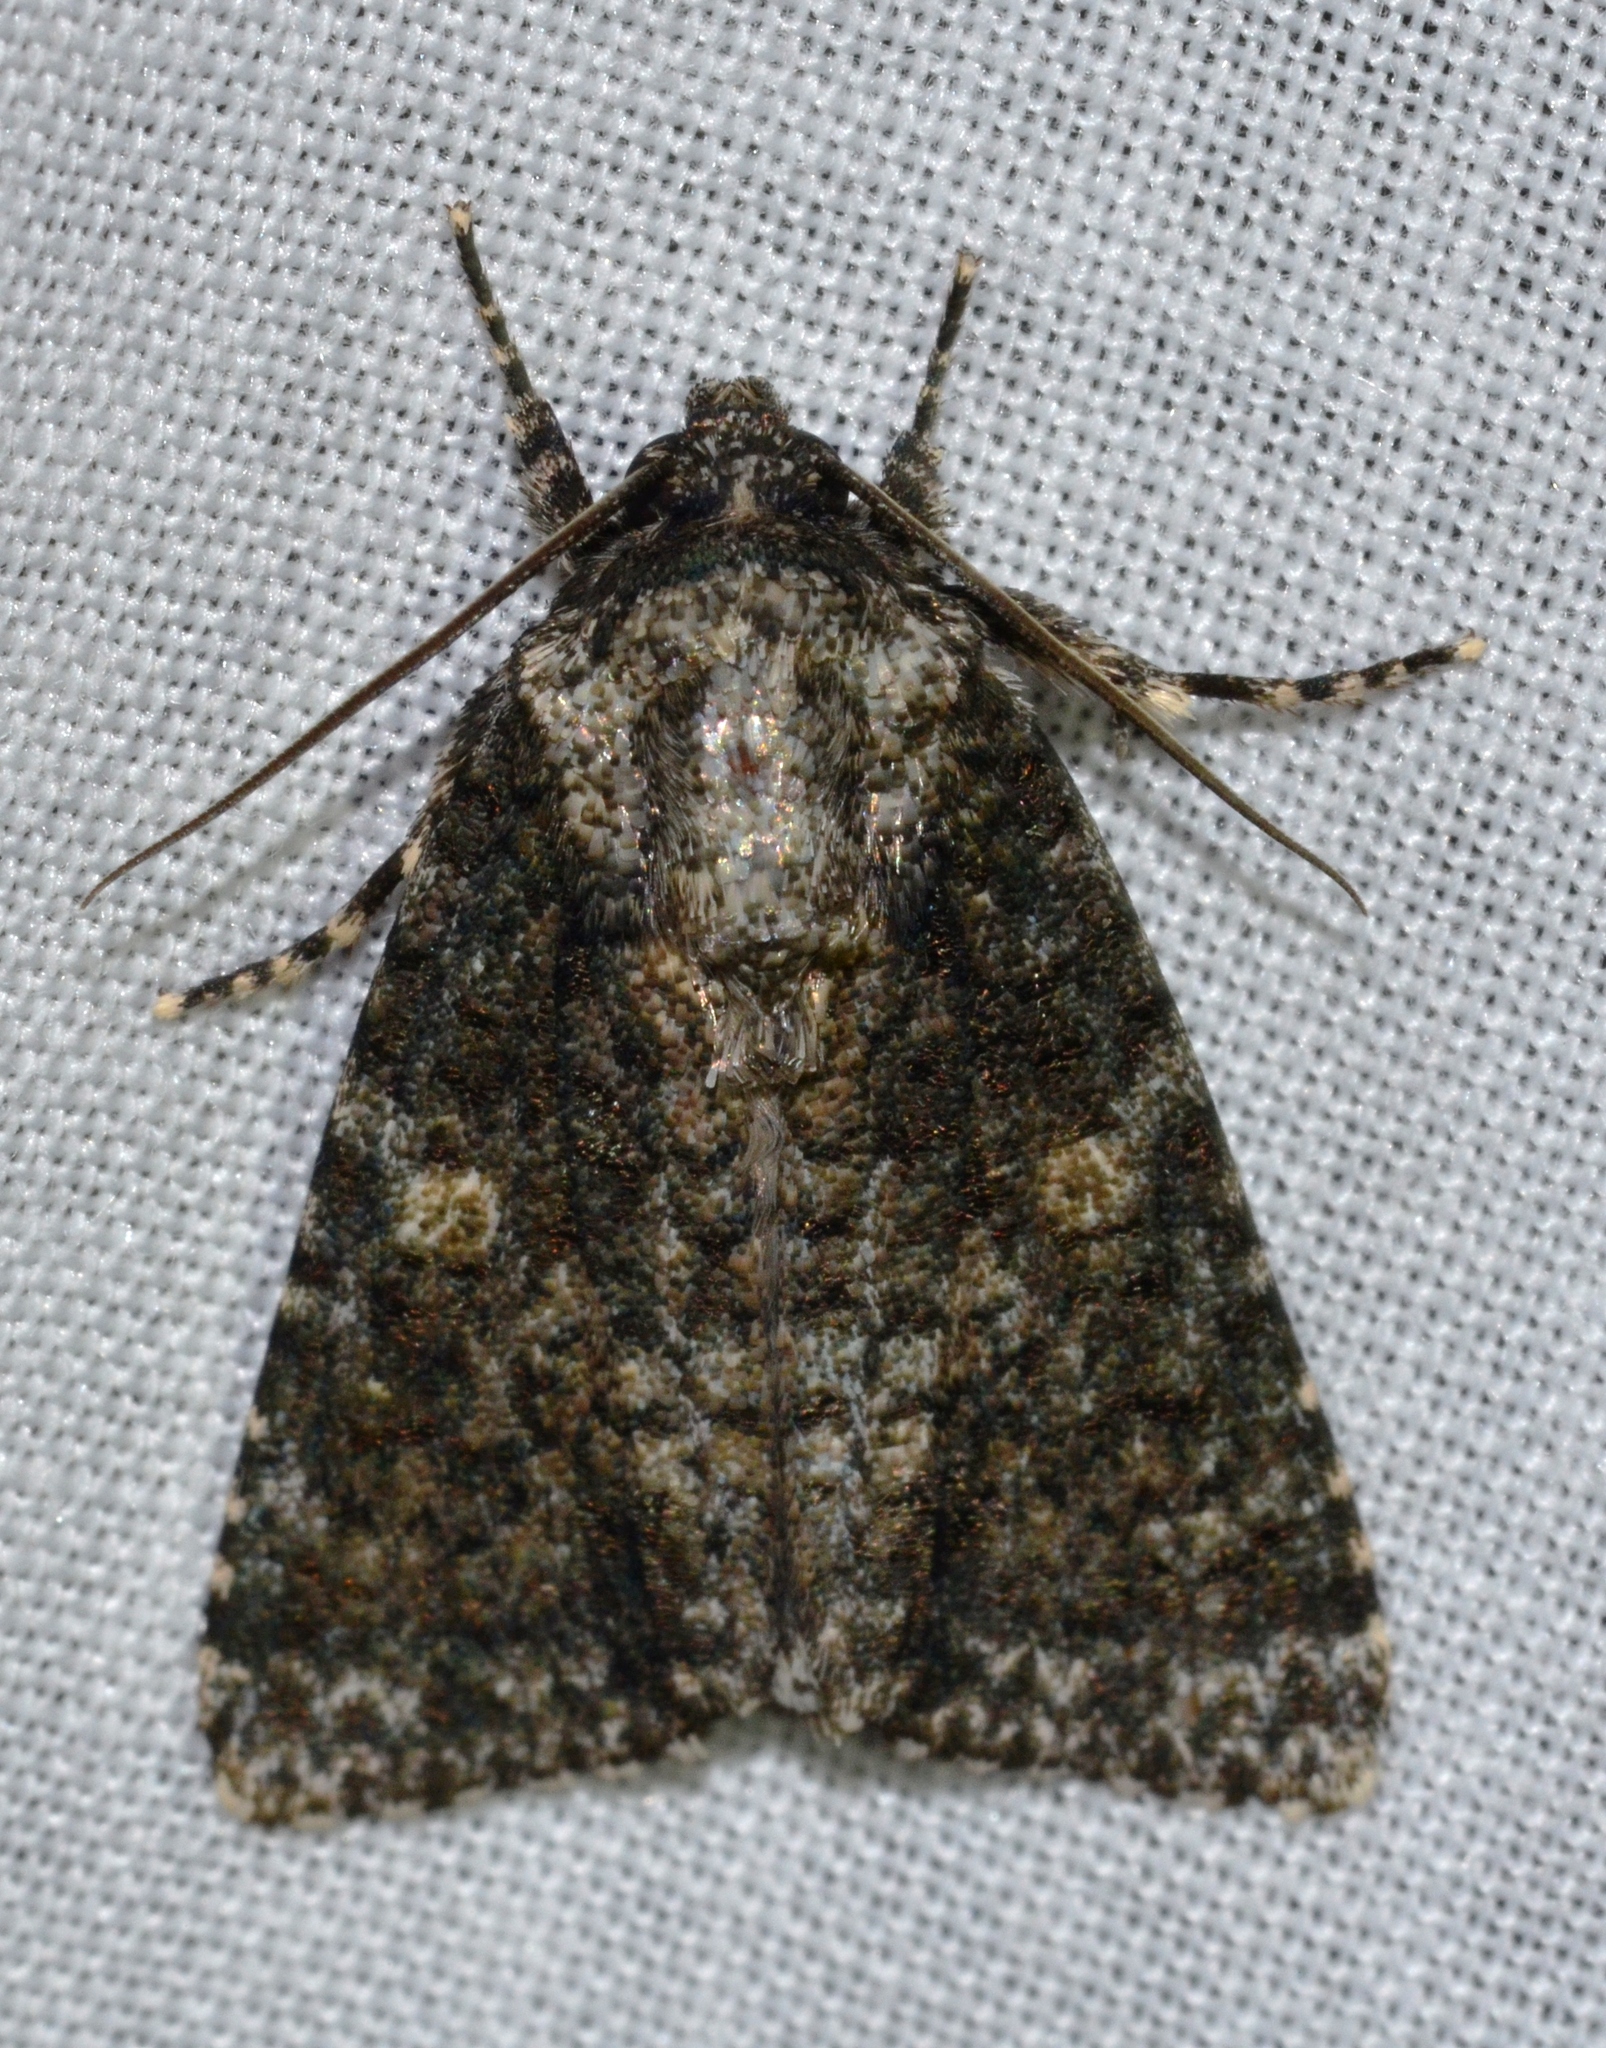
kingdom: Animalia
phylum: Arthropoda
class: Insecta
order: Lepidoptera
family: Noctuidae
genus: Acronicta
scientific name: Acronicta afflicta
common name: Afflicted dagger moth
